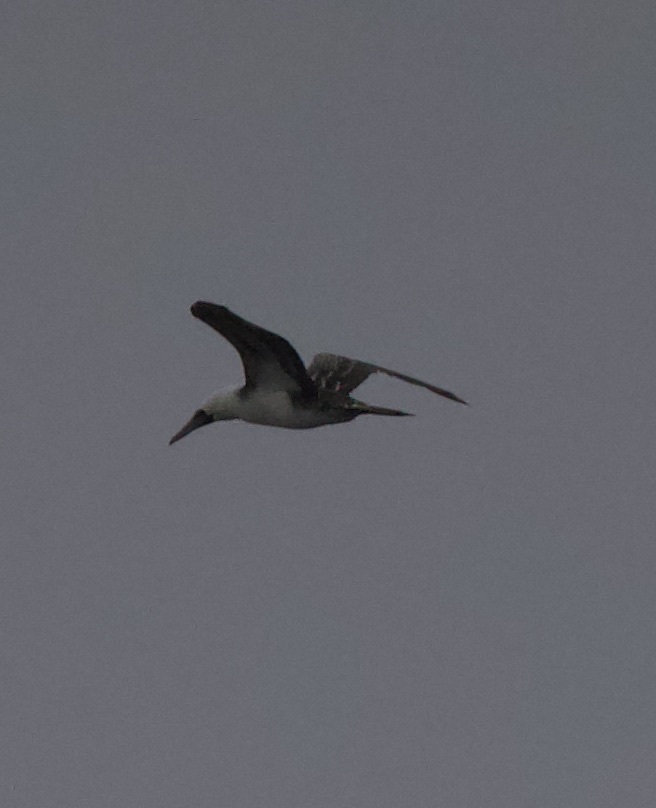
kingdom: Animalia
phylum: Chordata
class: Aves
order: Suliformes
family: Sulidae
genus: Sula
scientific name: Sula variegata
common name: Peruvian booby
